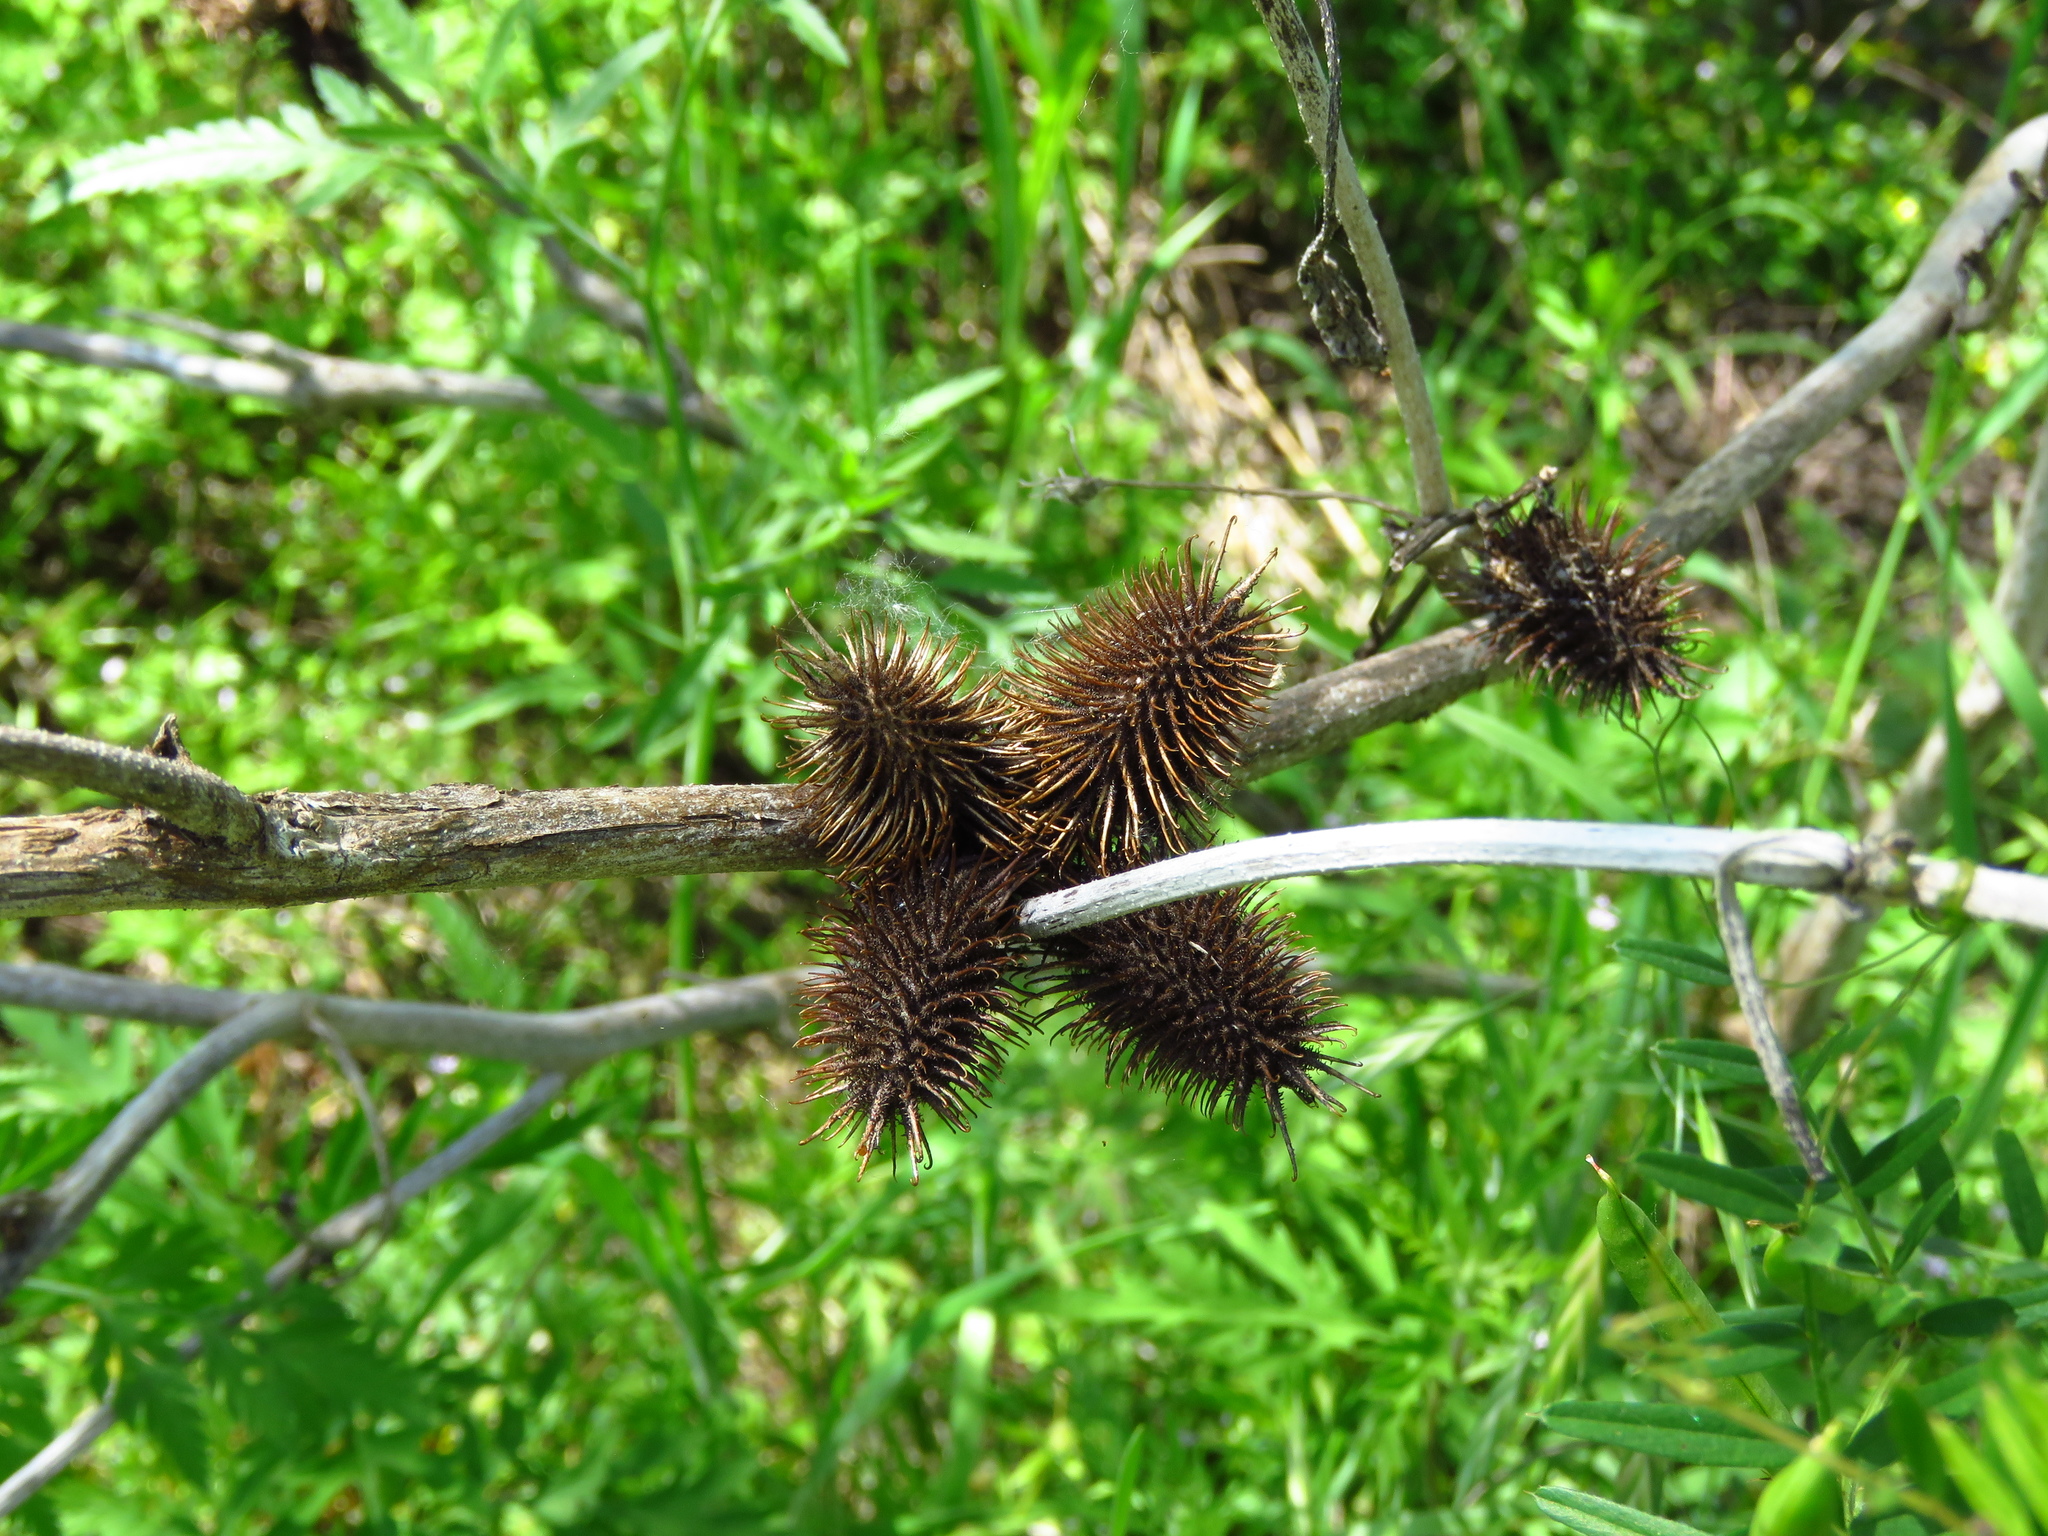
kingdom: Plantae
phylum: Tracheophyta
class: Magnoliopsida
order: Asterales
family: Asteraceae
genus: Xanthium
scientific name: Xanthium strumarium
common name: Rough cocklebur
